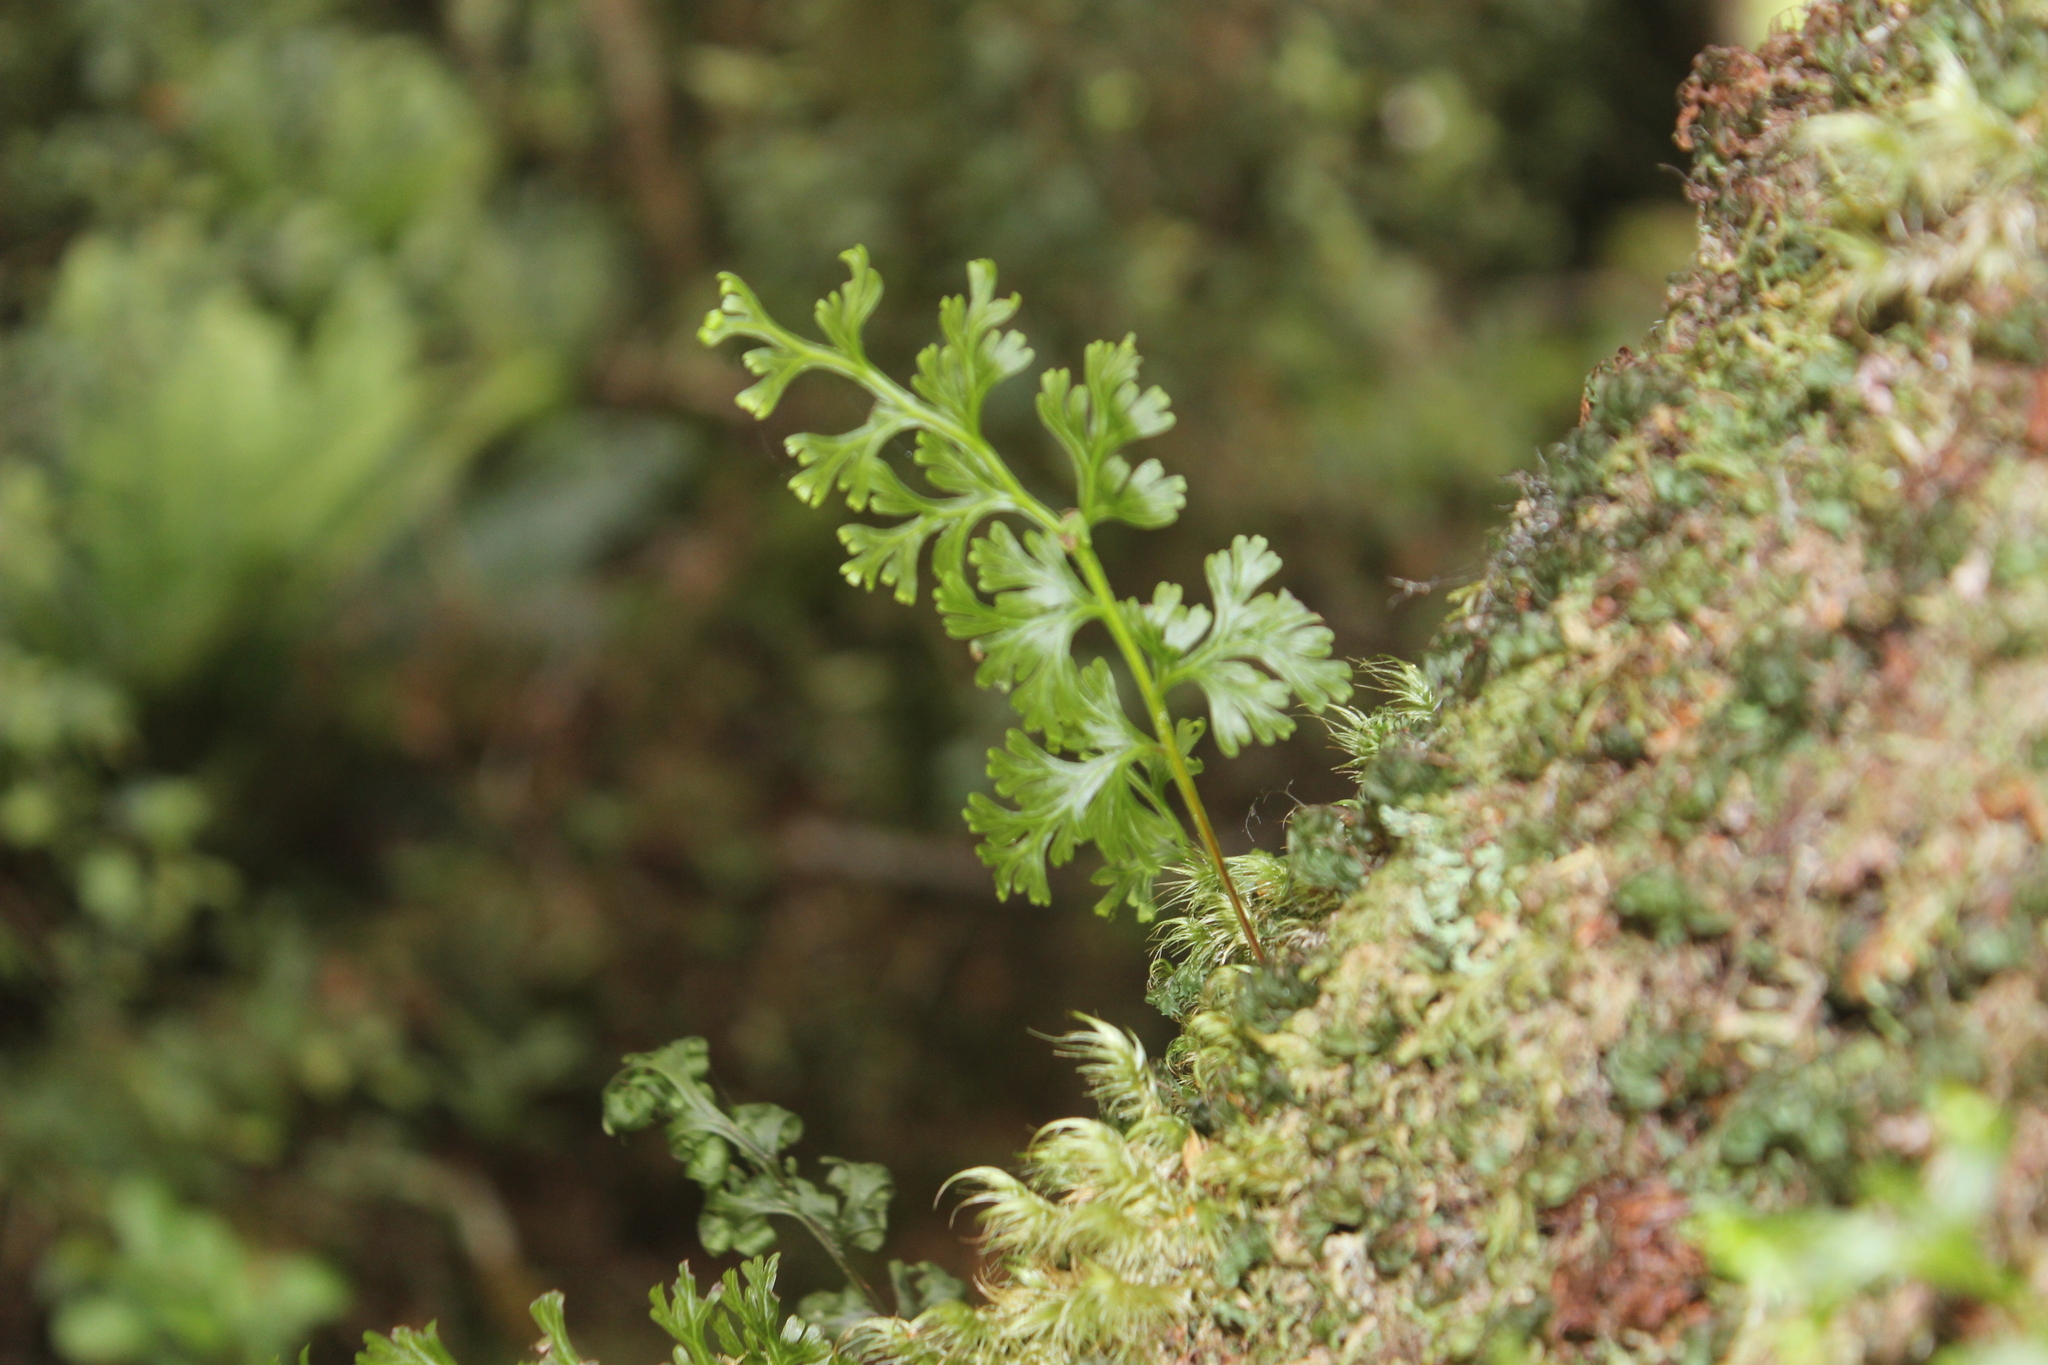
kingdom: Plantae
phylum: Tracheophyta
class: Polypodiopsida
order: Hymenophyllales
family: Hymenophyllaceae
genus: Hymenophyllum
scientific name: Hymenophyllum dilatatum
